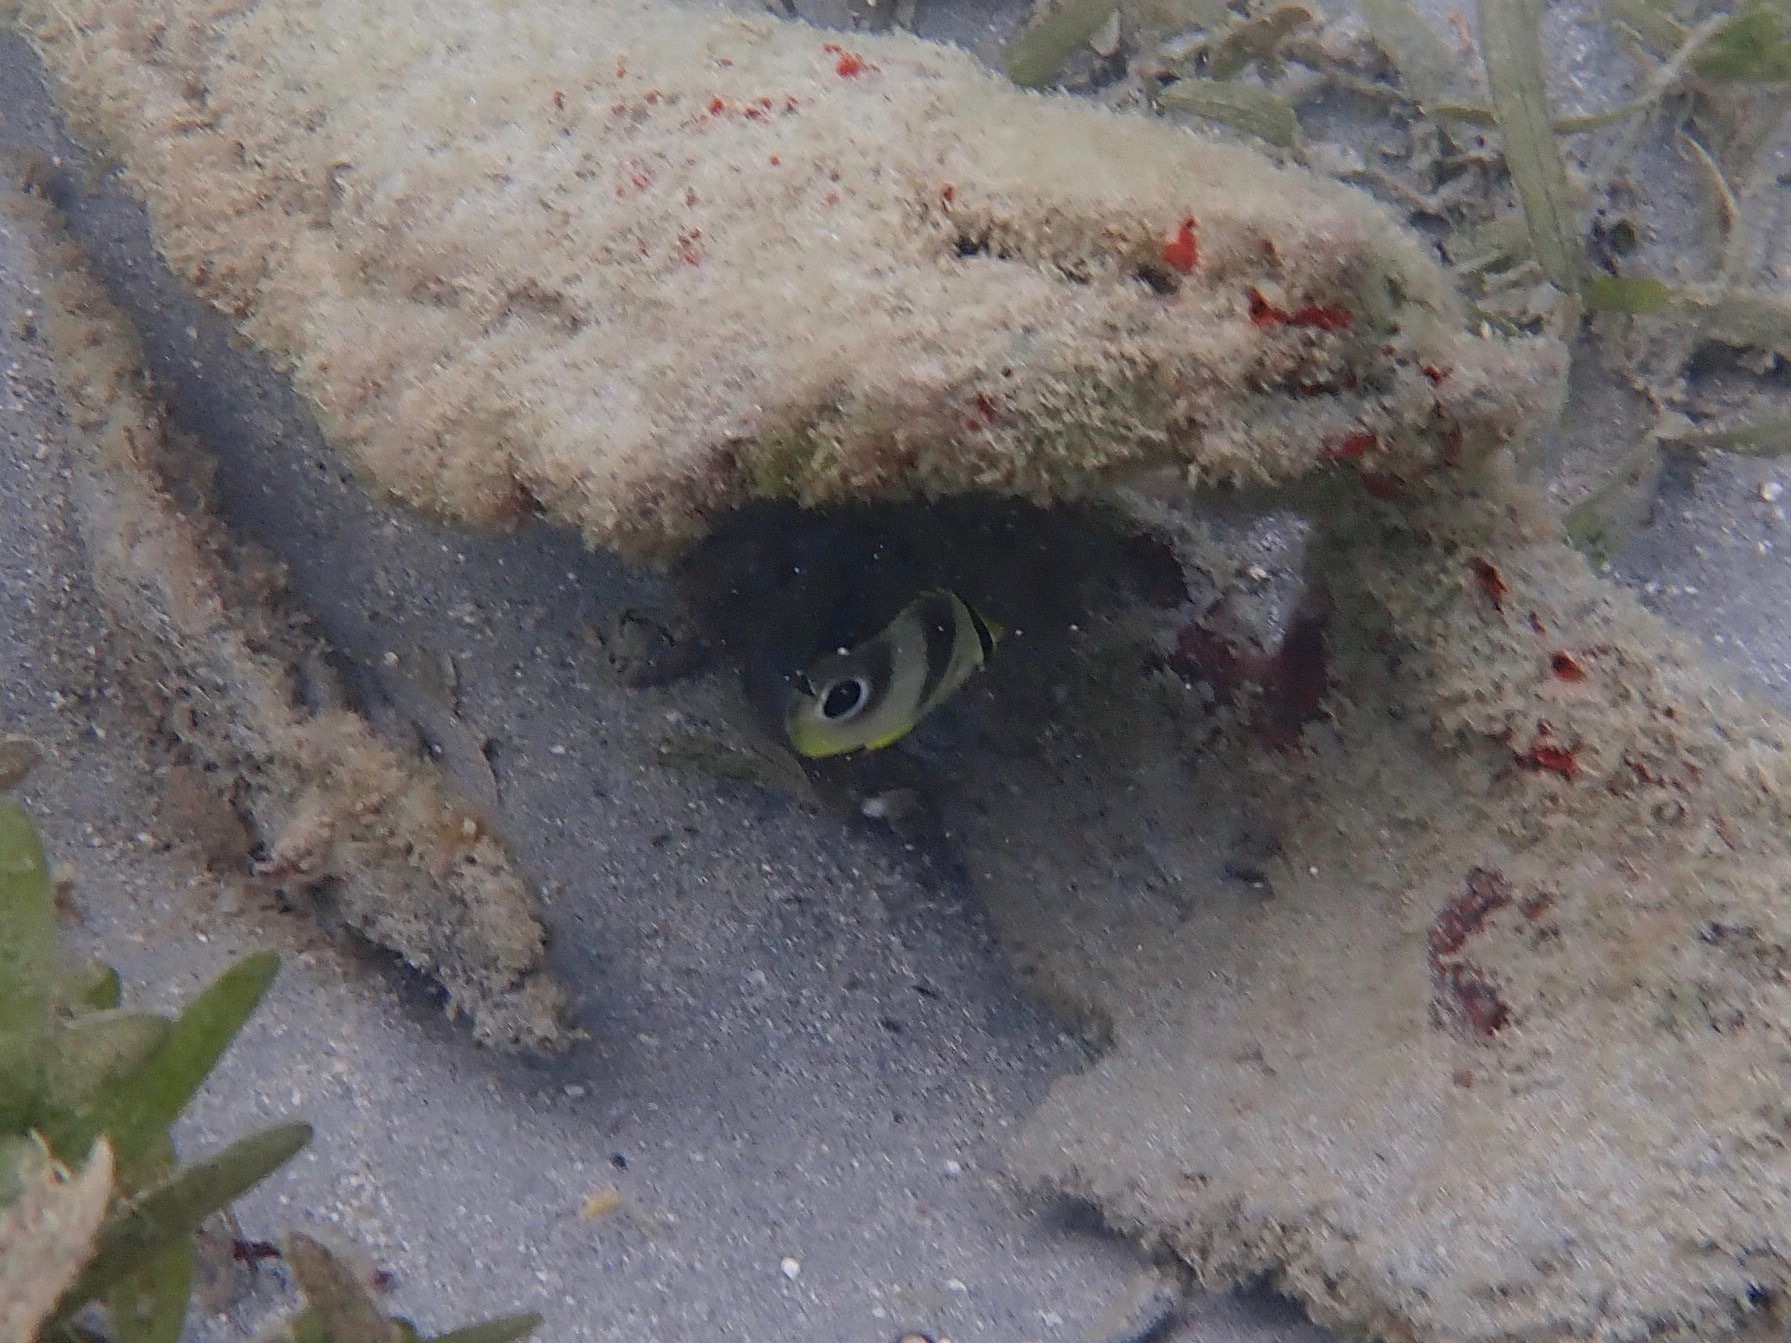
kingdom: Animalia
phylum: Chordata
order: Perciformes
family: Chaetodontidae
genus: Chaetodon
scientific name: Chaetodon capistratus
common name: Kete
